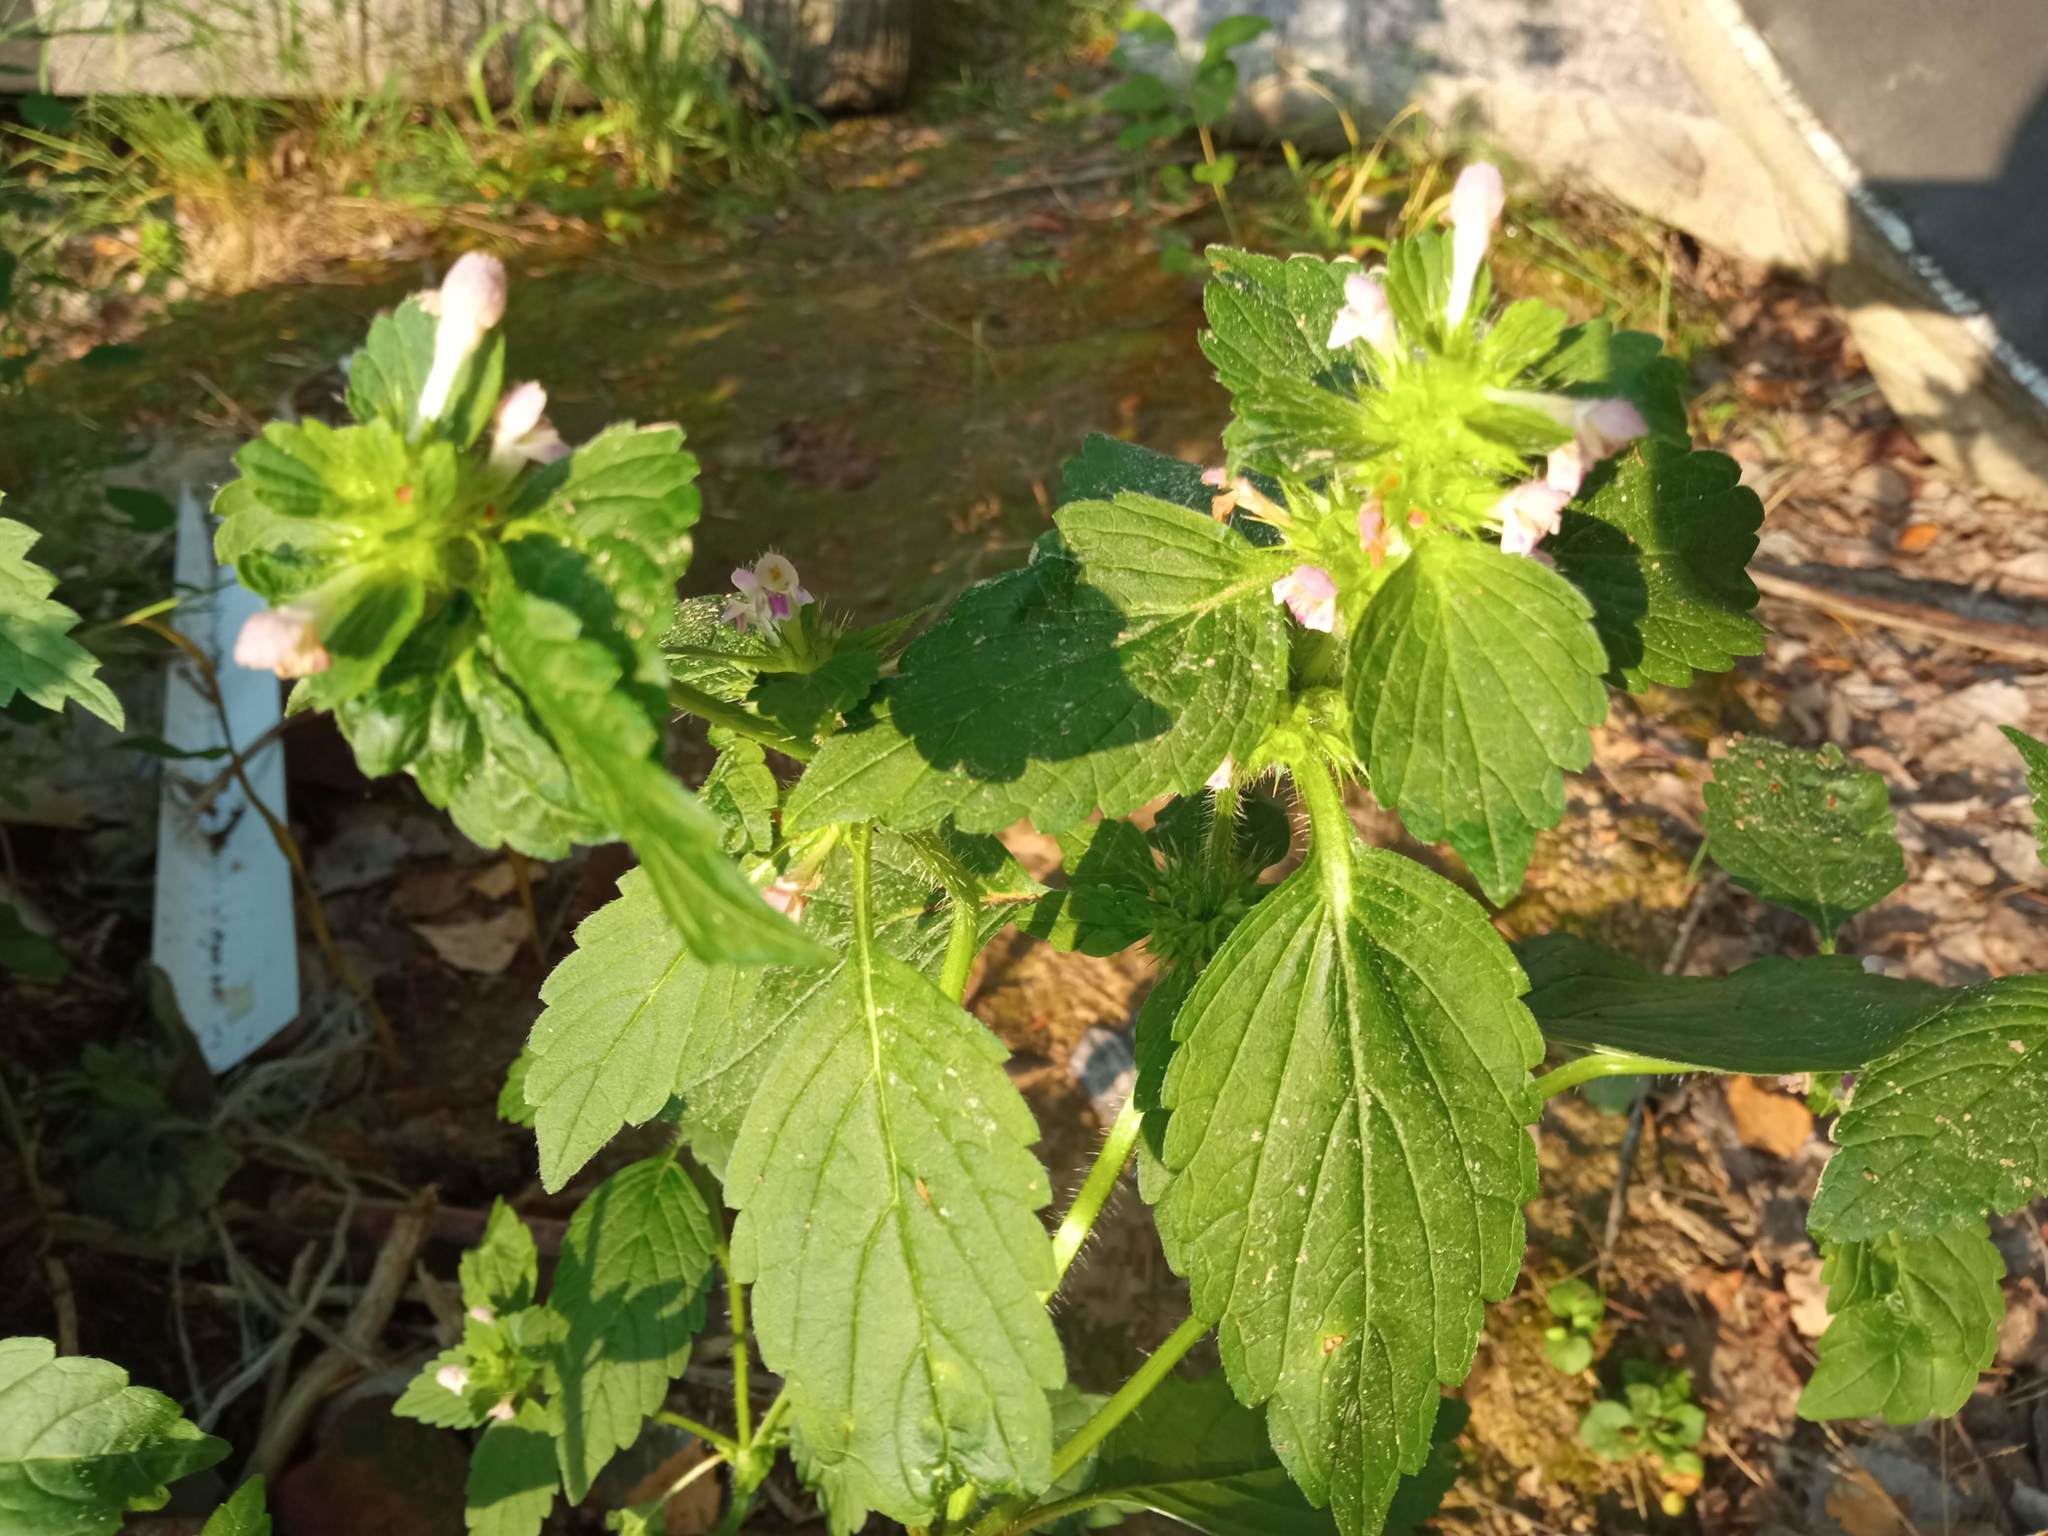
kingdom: Plantae
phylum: Tracheophyta
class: Magnoliopsida
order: Lamiales
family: Lamiaceae
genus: Galeopsis
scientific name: Galeopsis bifida
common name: Bifid hemp-nettle
